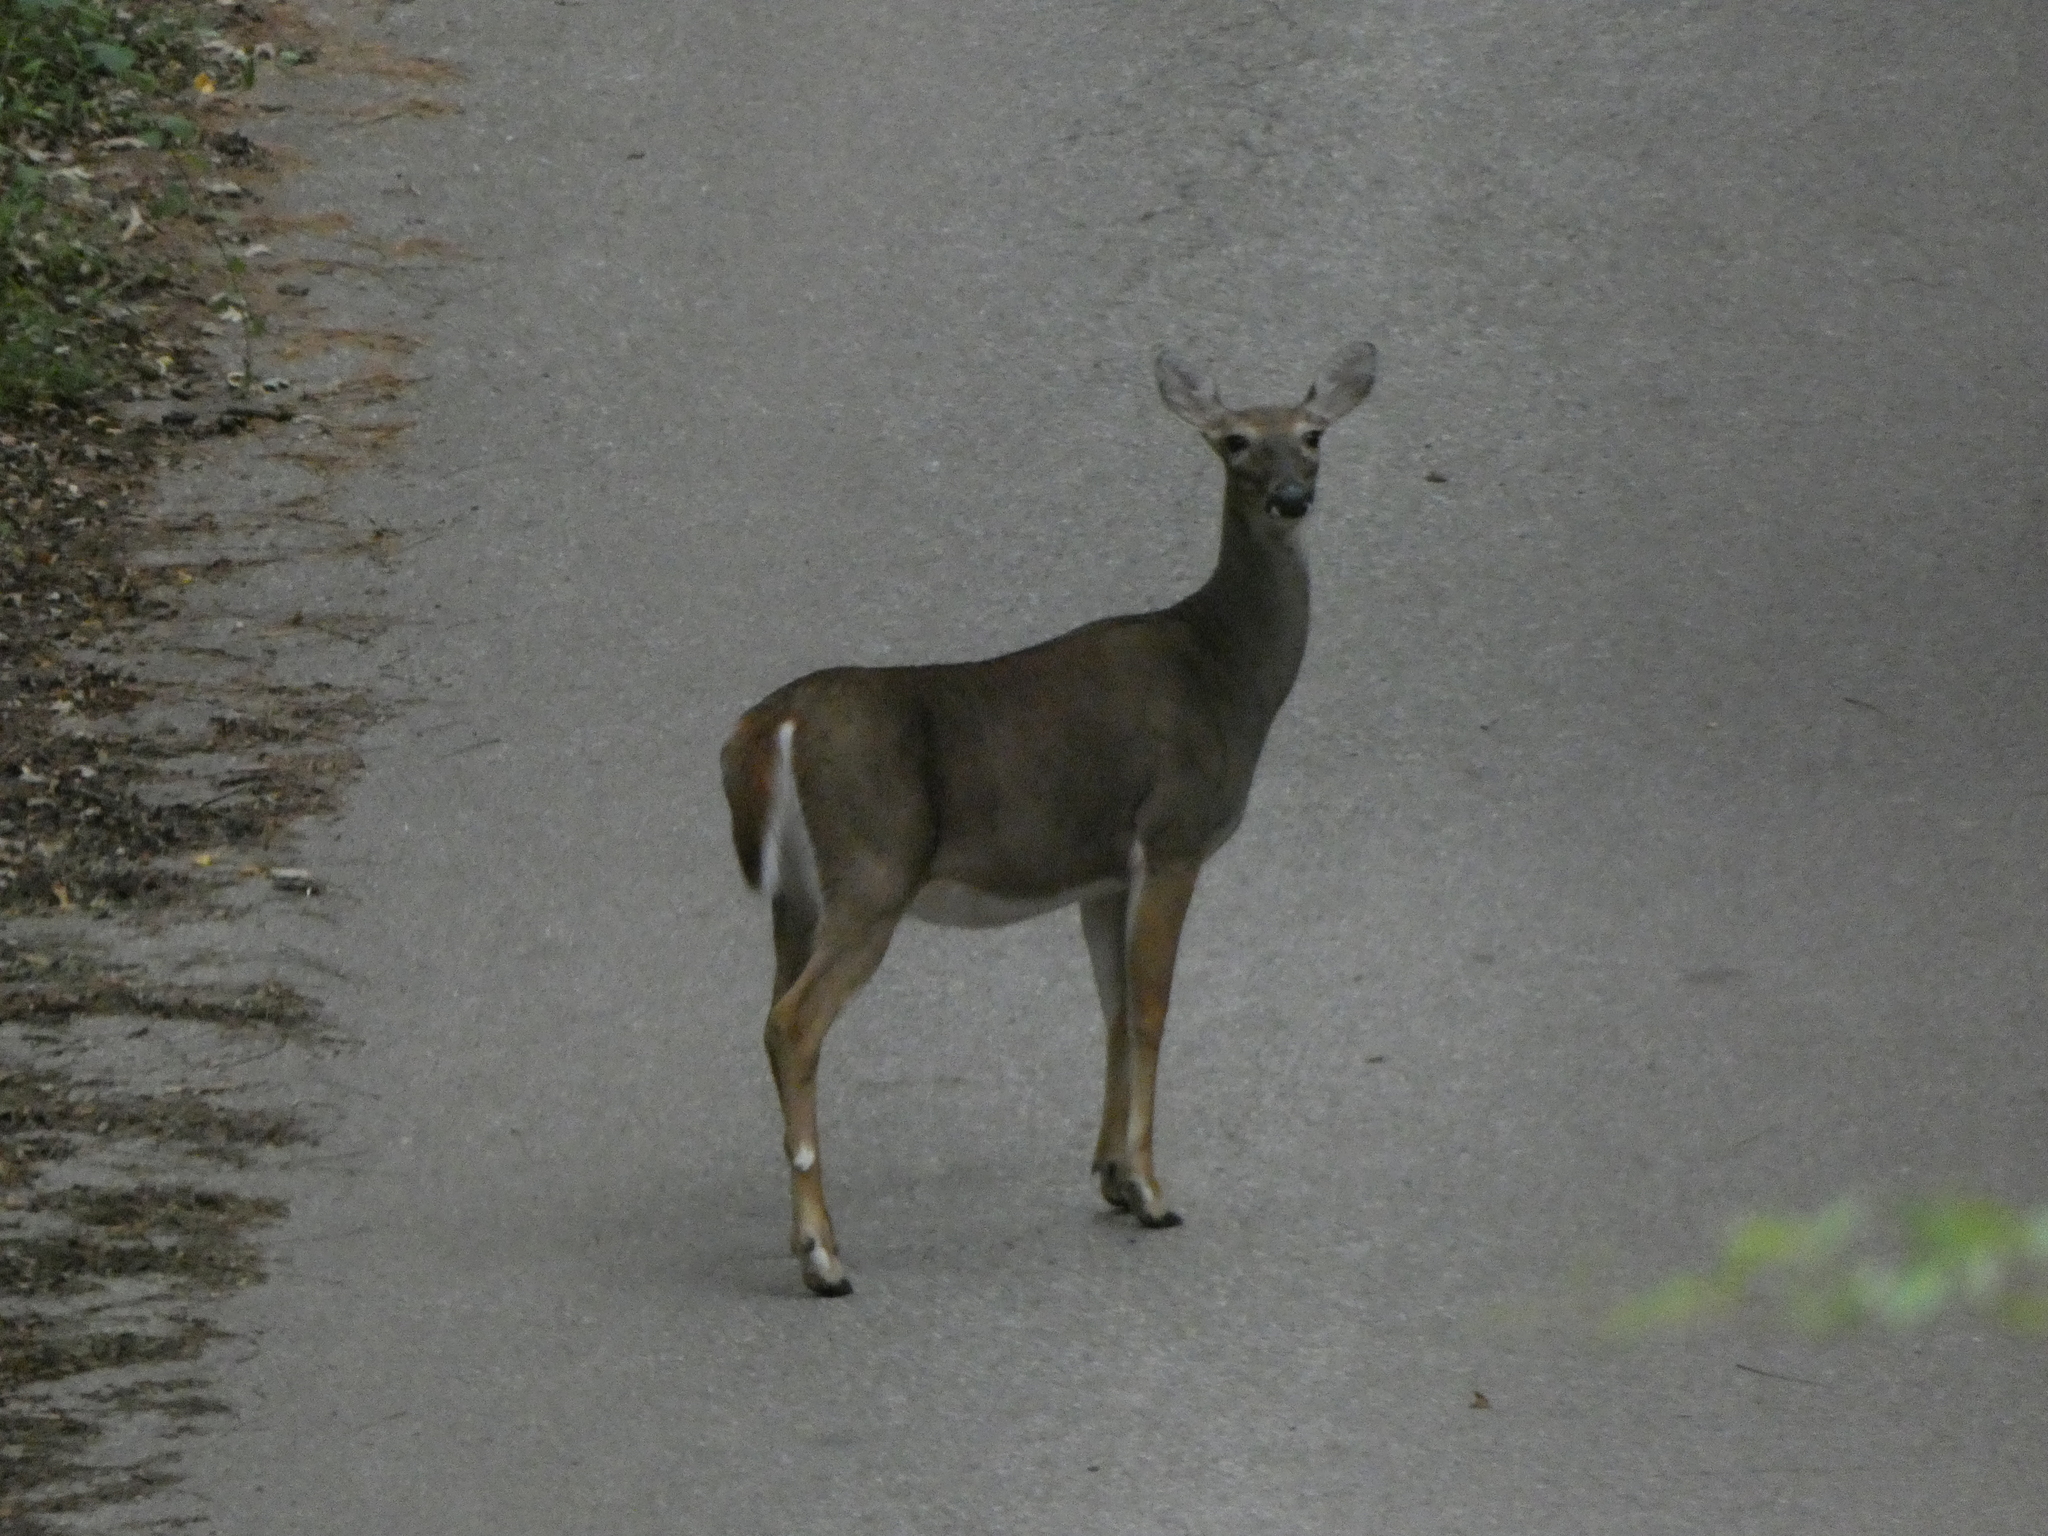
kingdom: Animalia
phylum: Chordata
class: Mammalia
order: Artiodactyla
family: Cervidae
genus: Odocoileus
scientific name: Odocoileus virginianus
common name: White-tailed deer
